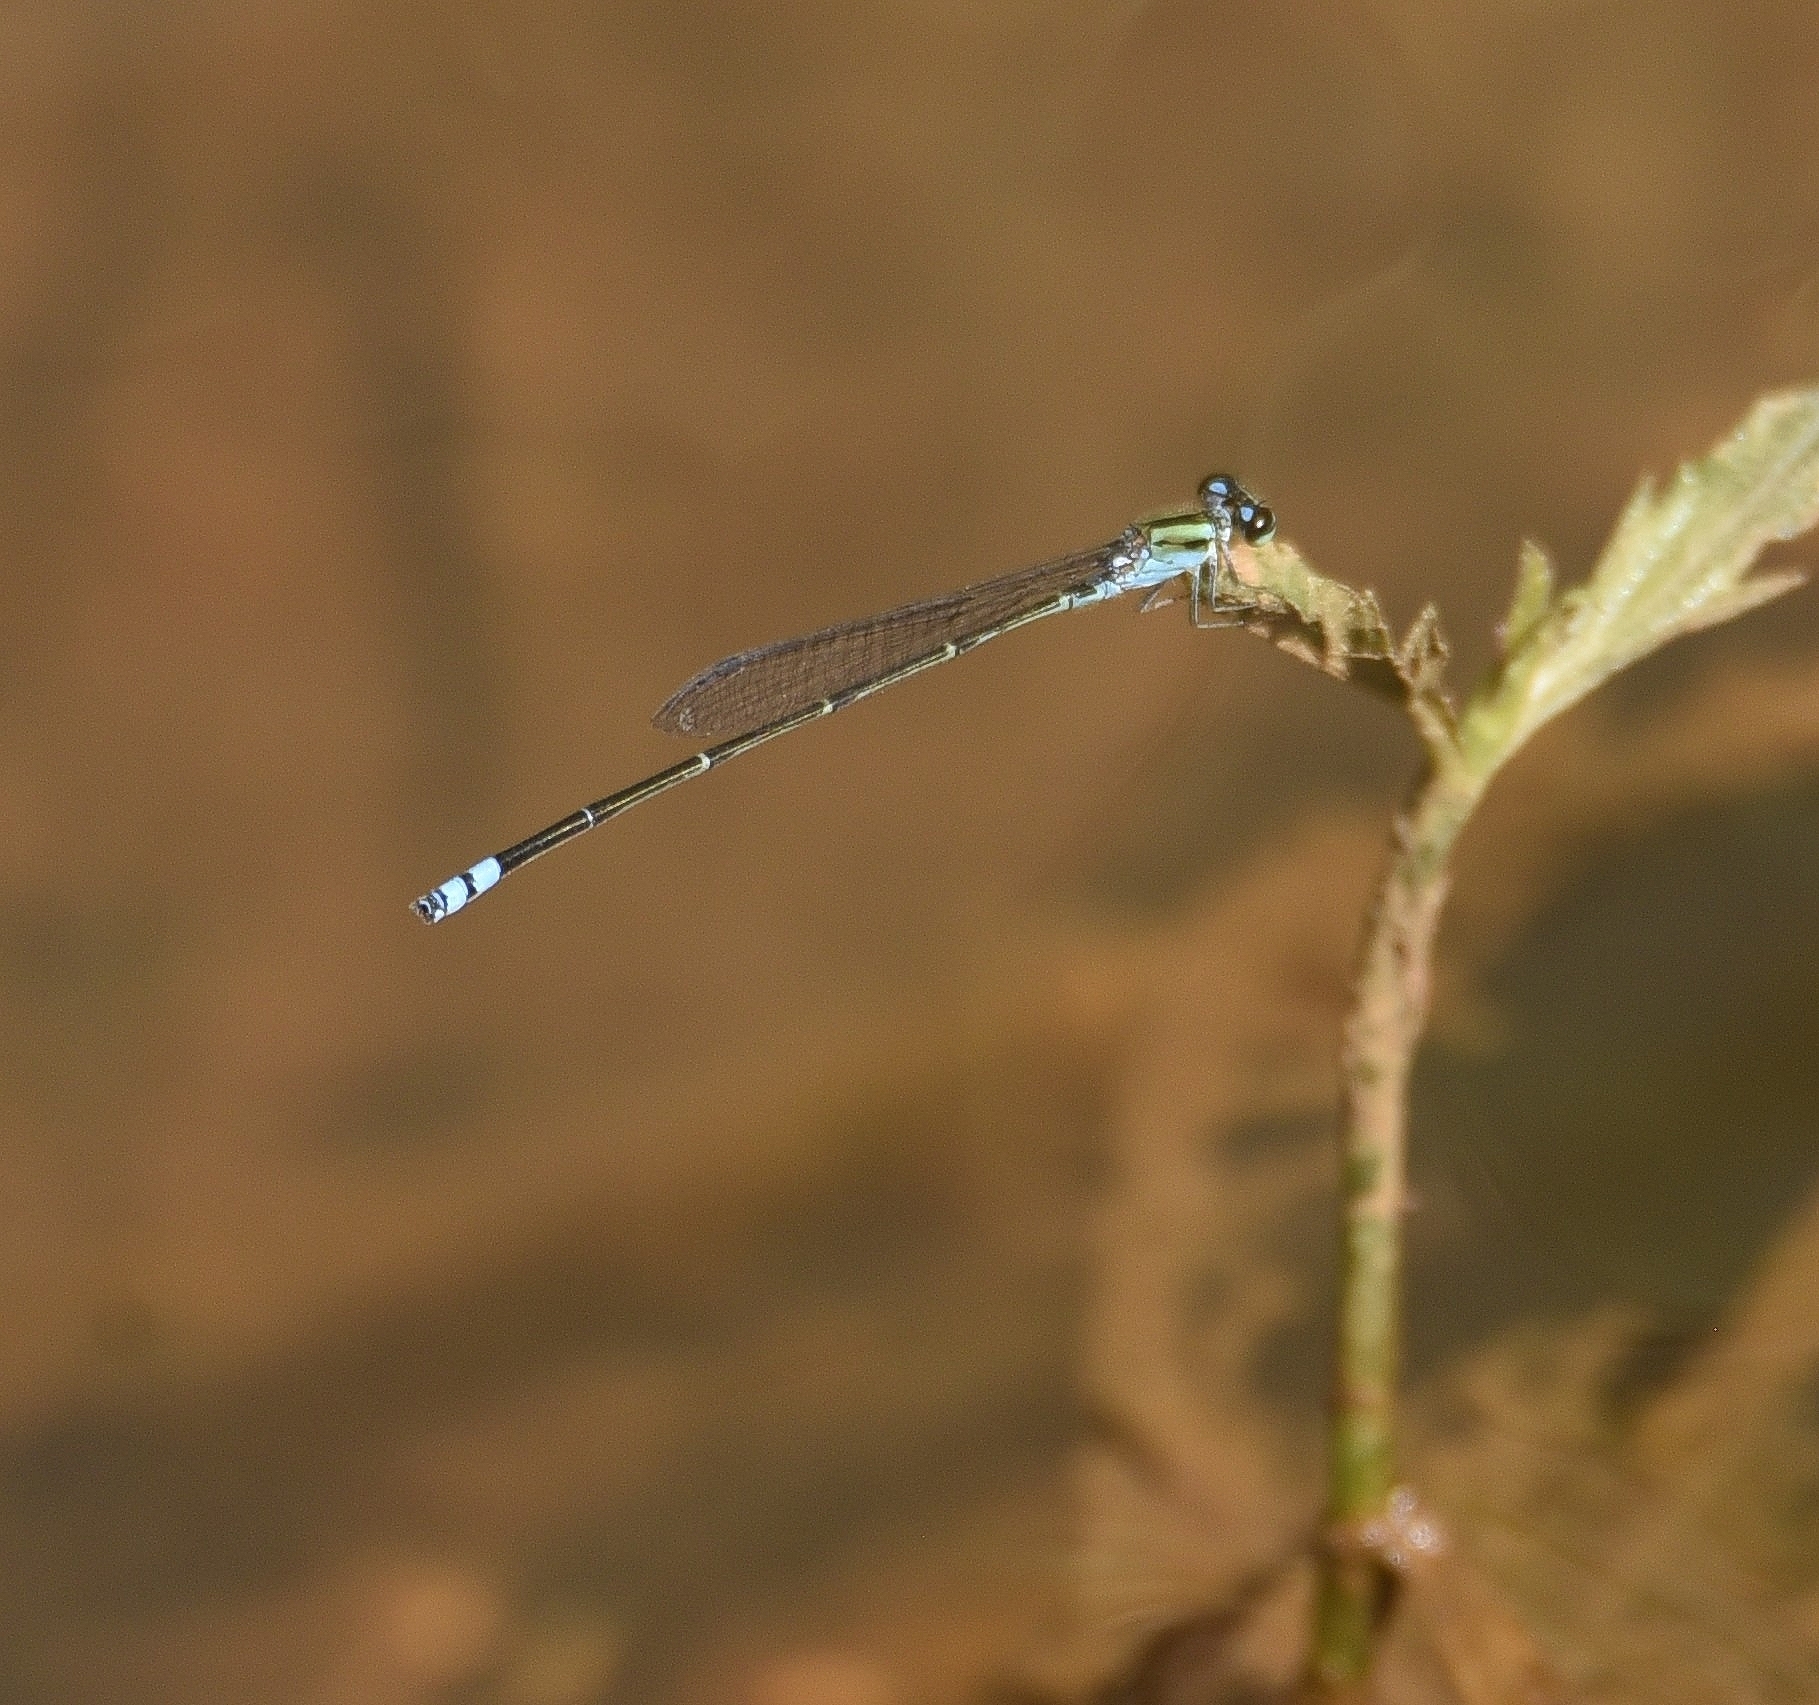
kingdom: Animalia
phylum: Arthropoda
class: Insecta
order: Odonata
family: Coenagrionidae
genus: Pseudagrion
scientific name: Pseudagrion indicum
